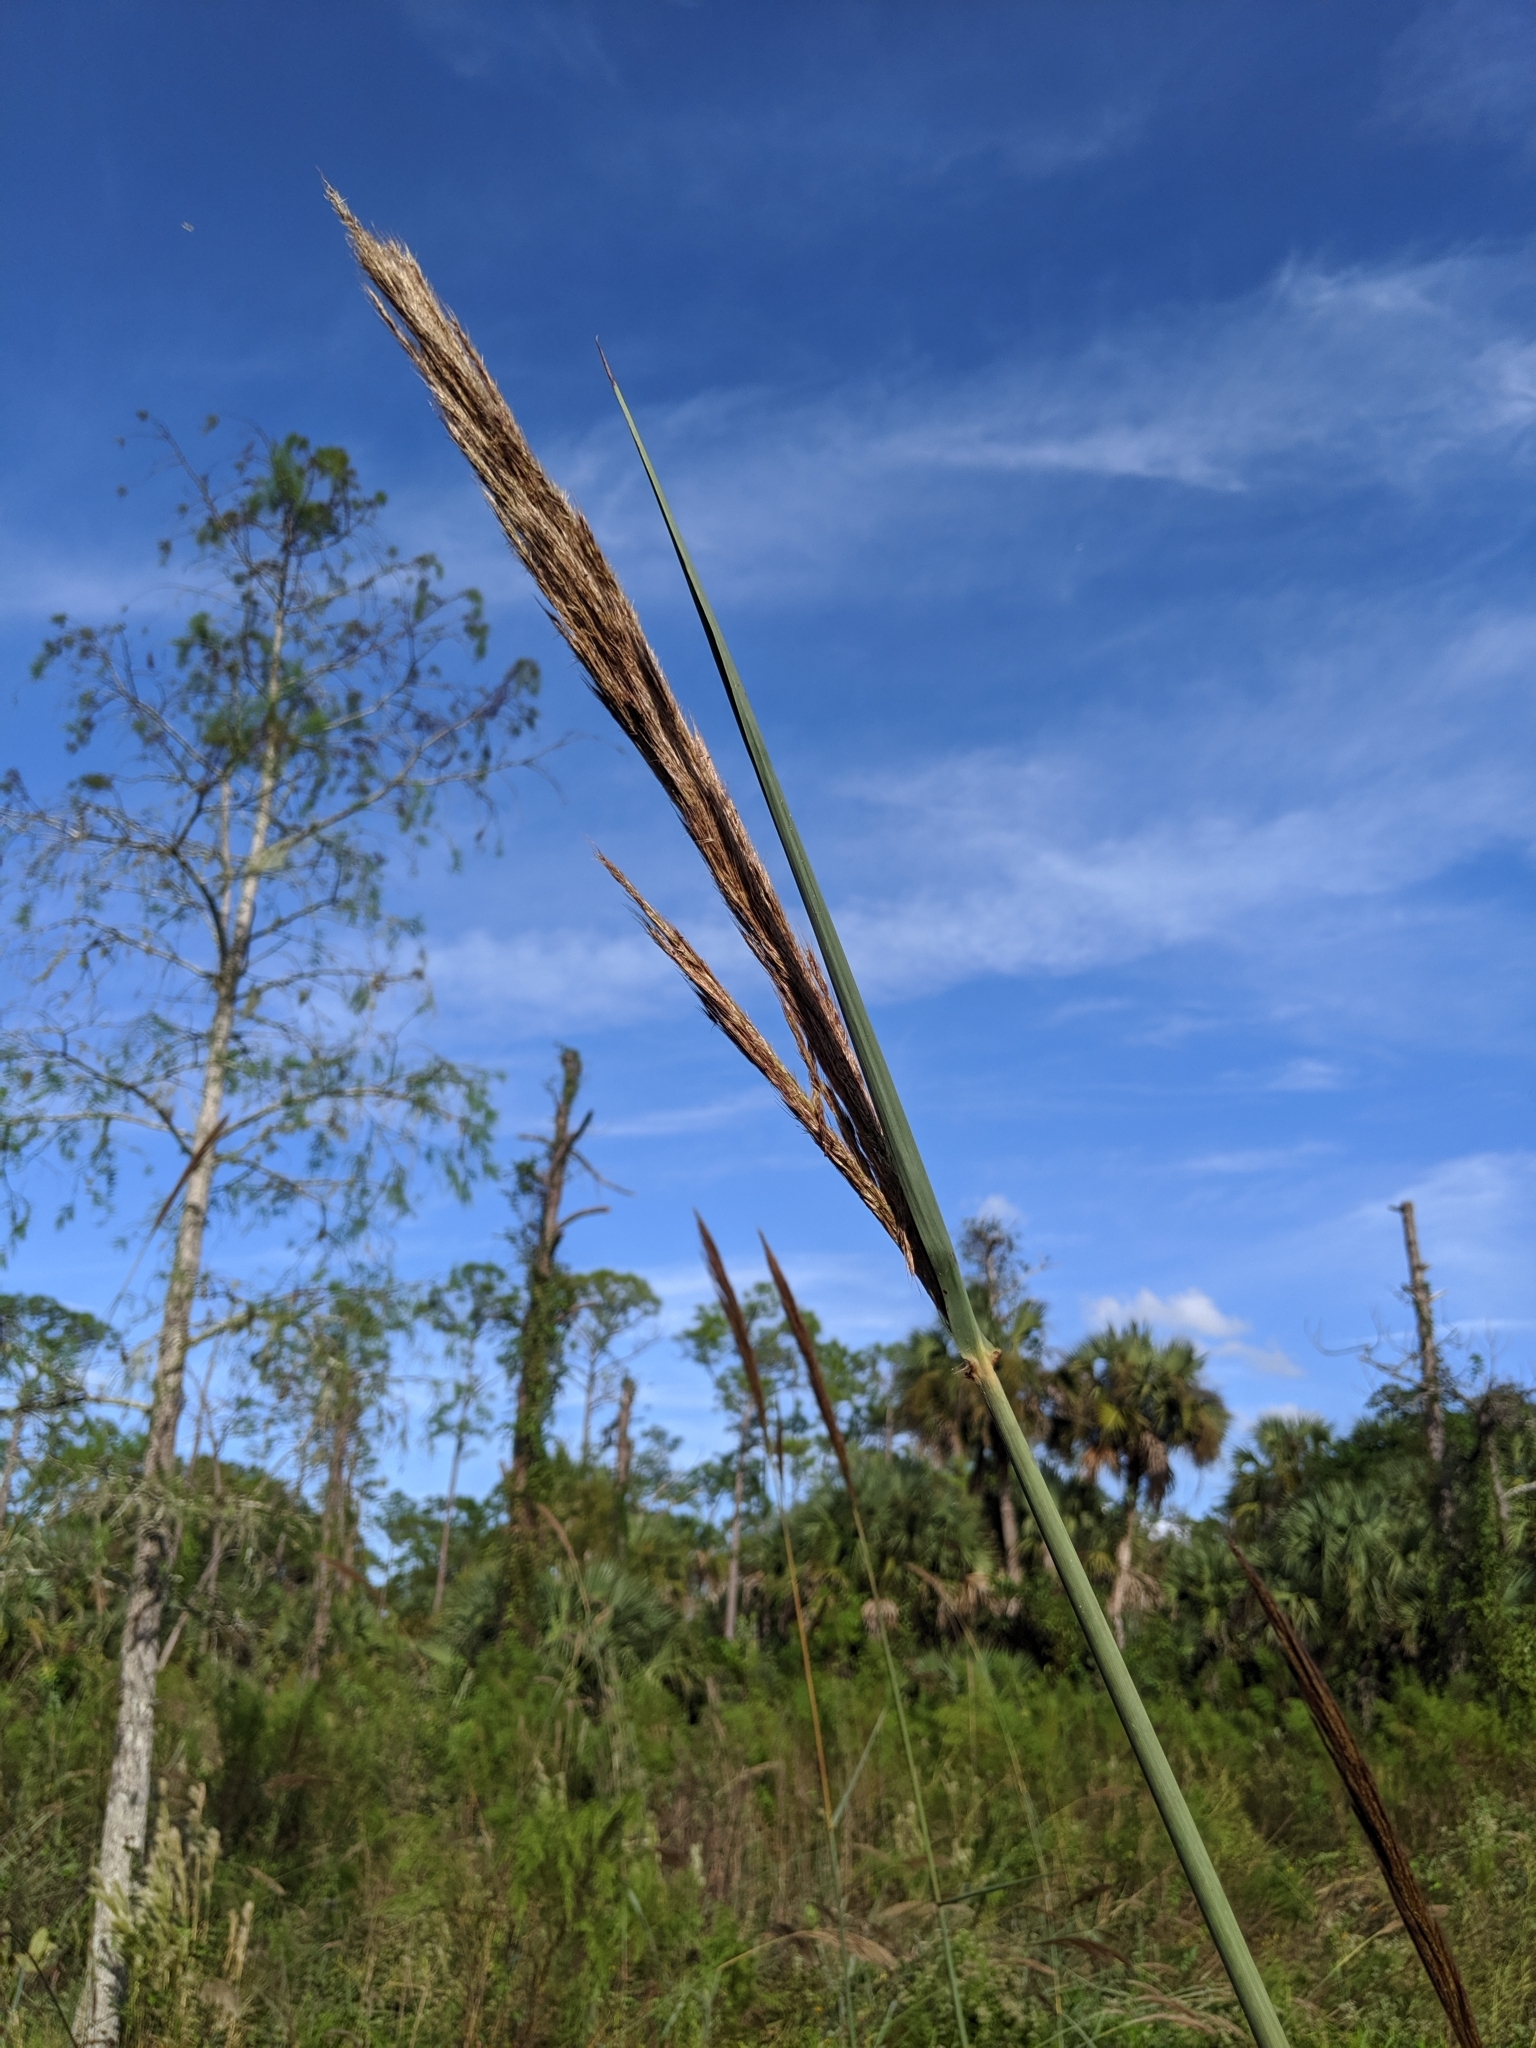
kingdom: Plantae
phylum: Tracheophyta
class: Liliopsida
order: Poales
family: Poaceae
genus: Erianthus
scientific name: Erianthus giganteus
